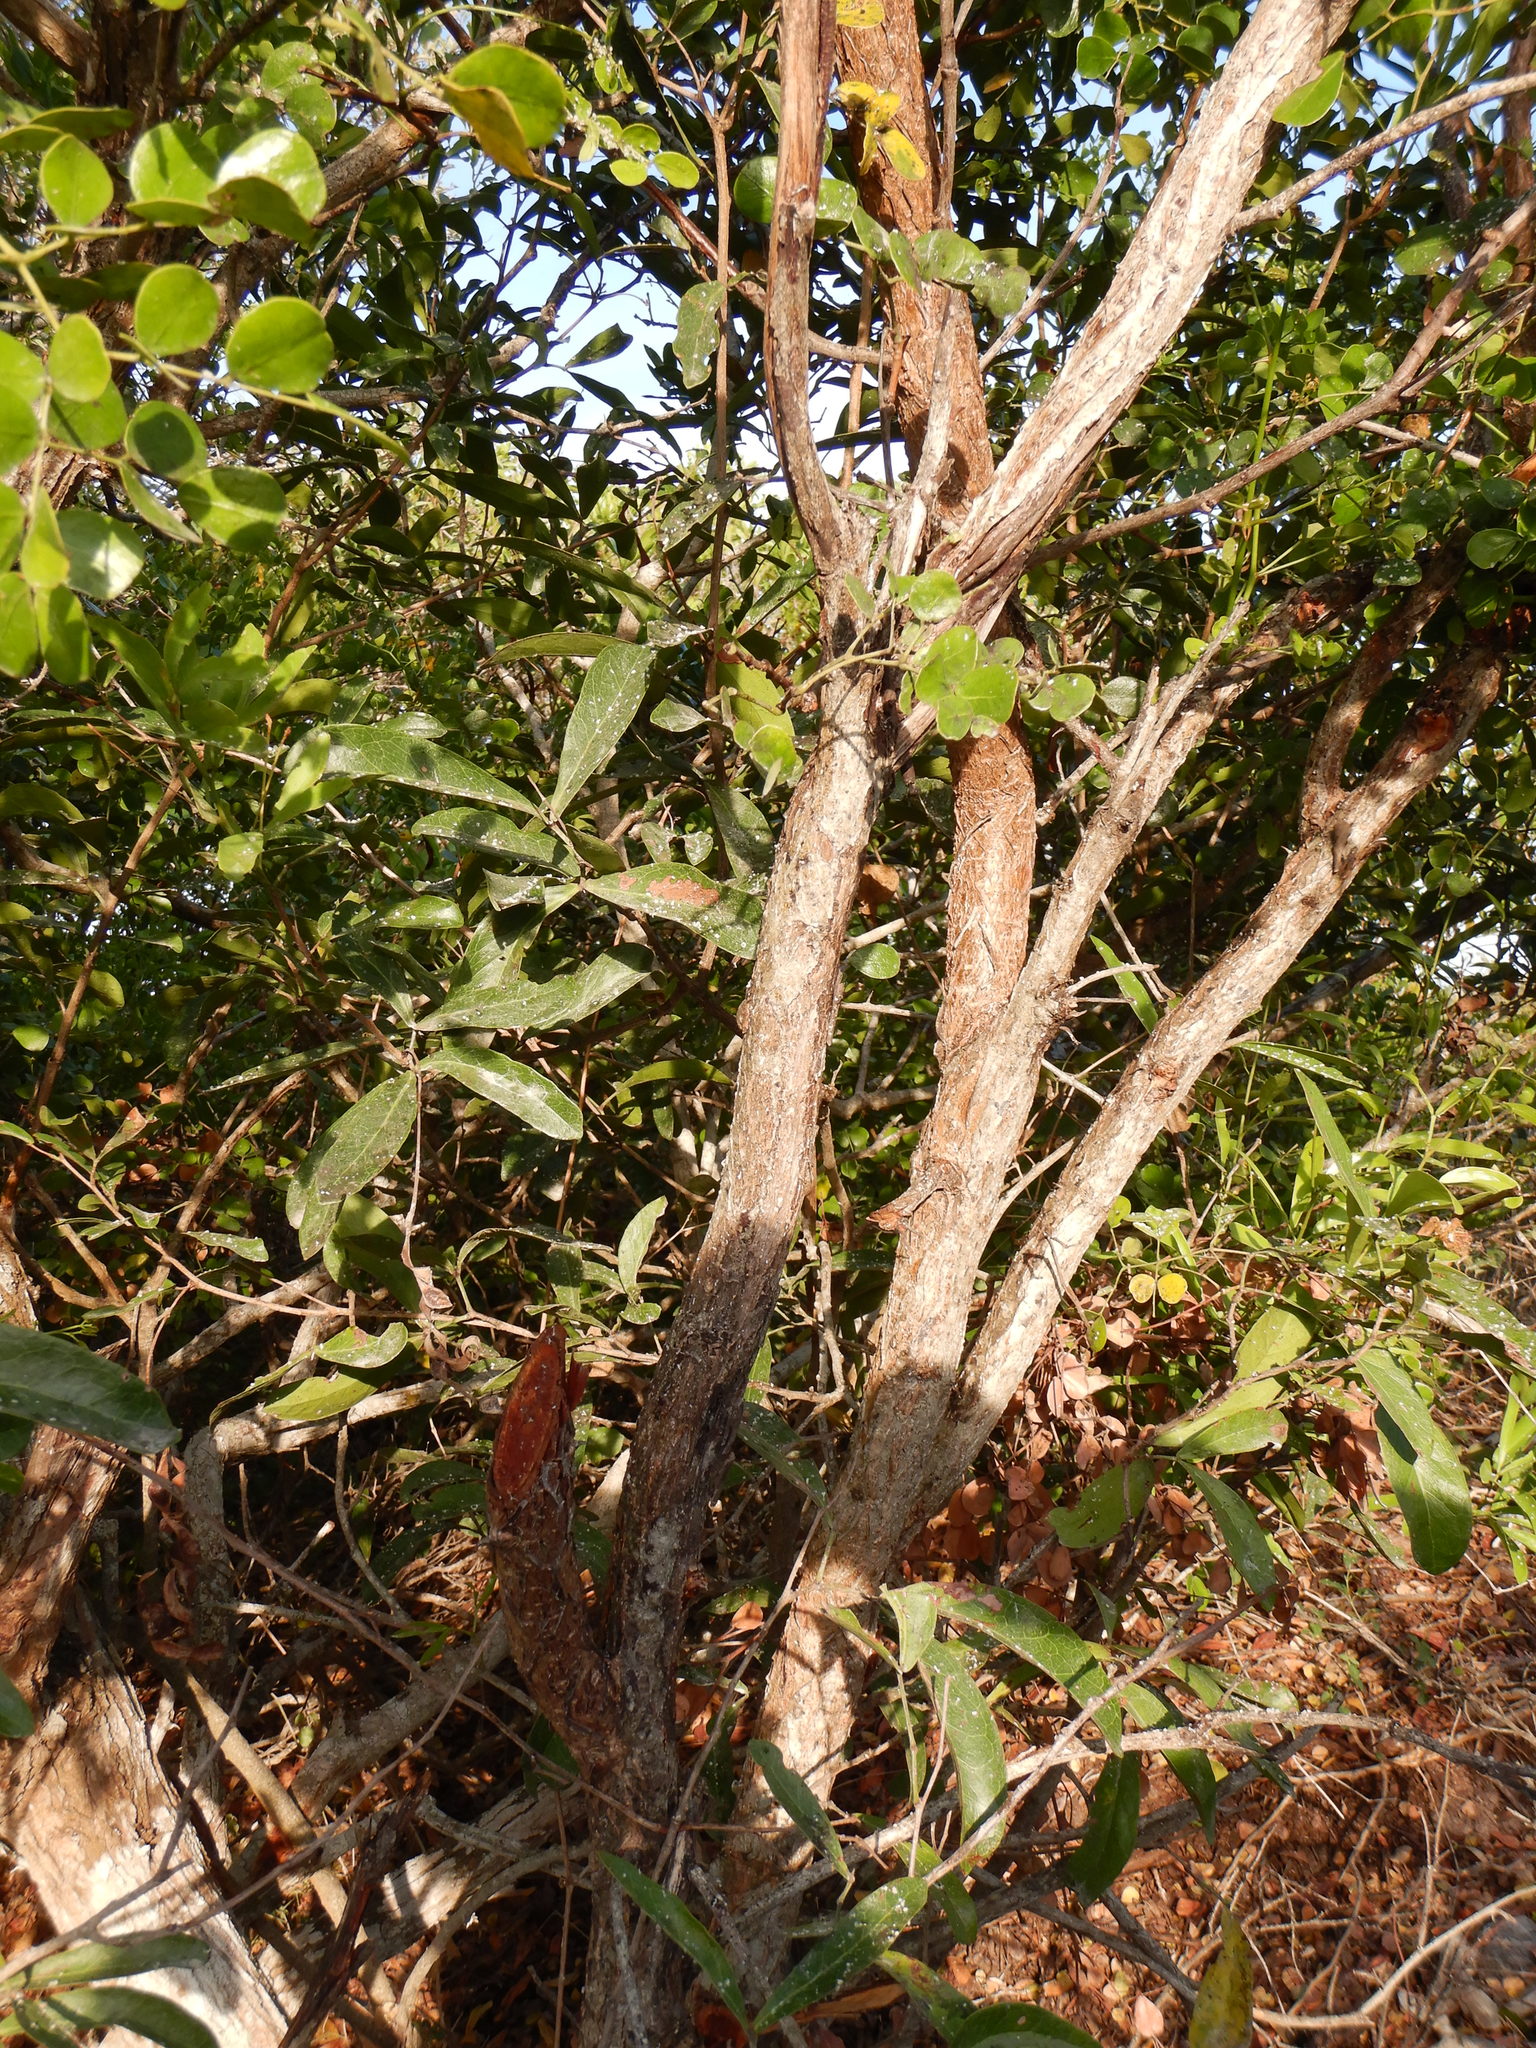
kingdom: Plantae
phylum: Tracheophyta
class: Magnoliopsida
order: Fabales
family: Fabaceae
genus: Tara
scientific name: Tara vesicaria
